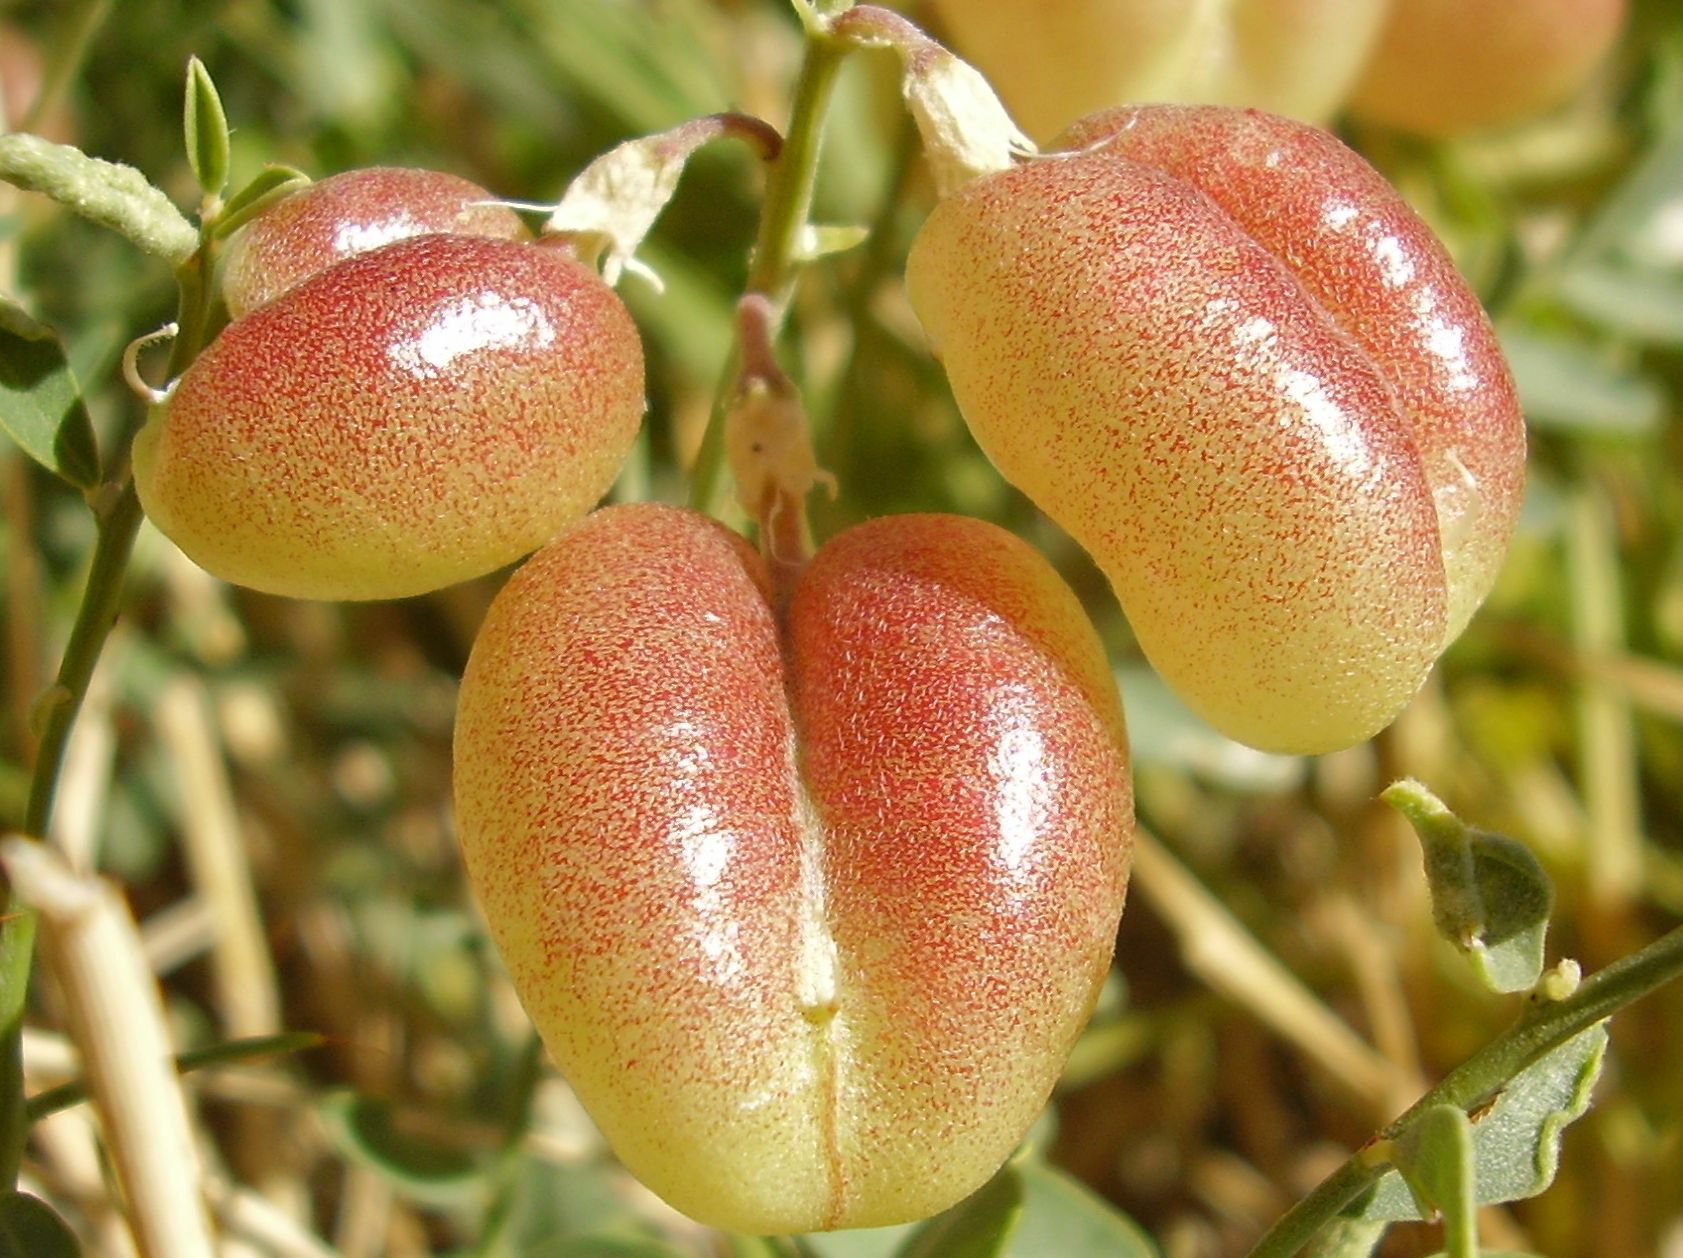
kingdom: Plantae
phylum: Tracheophyta
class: Magnoliopsida
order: Fabales
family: Fabaceae
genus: Sphaerophysa
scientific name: Sphaerophysa salsula
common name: Alkali swainsonpea
